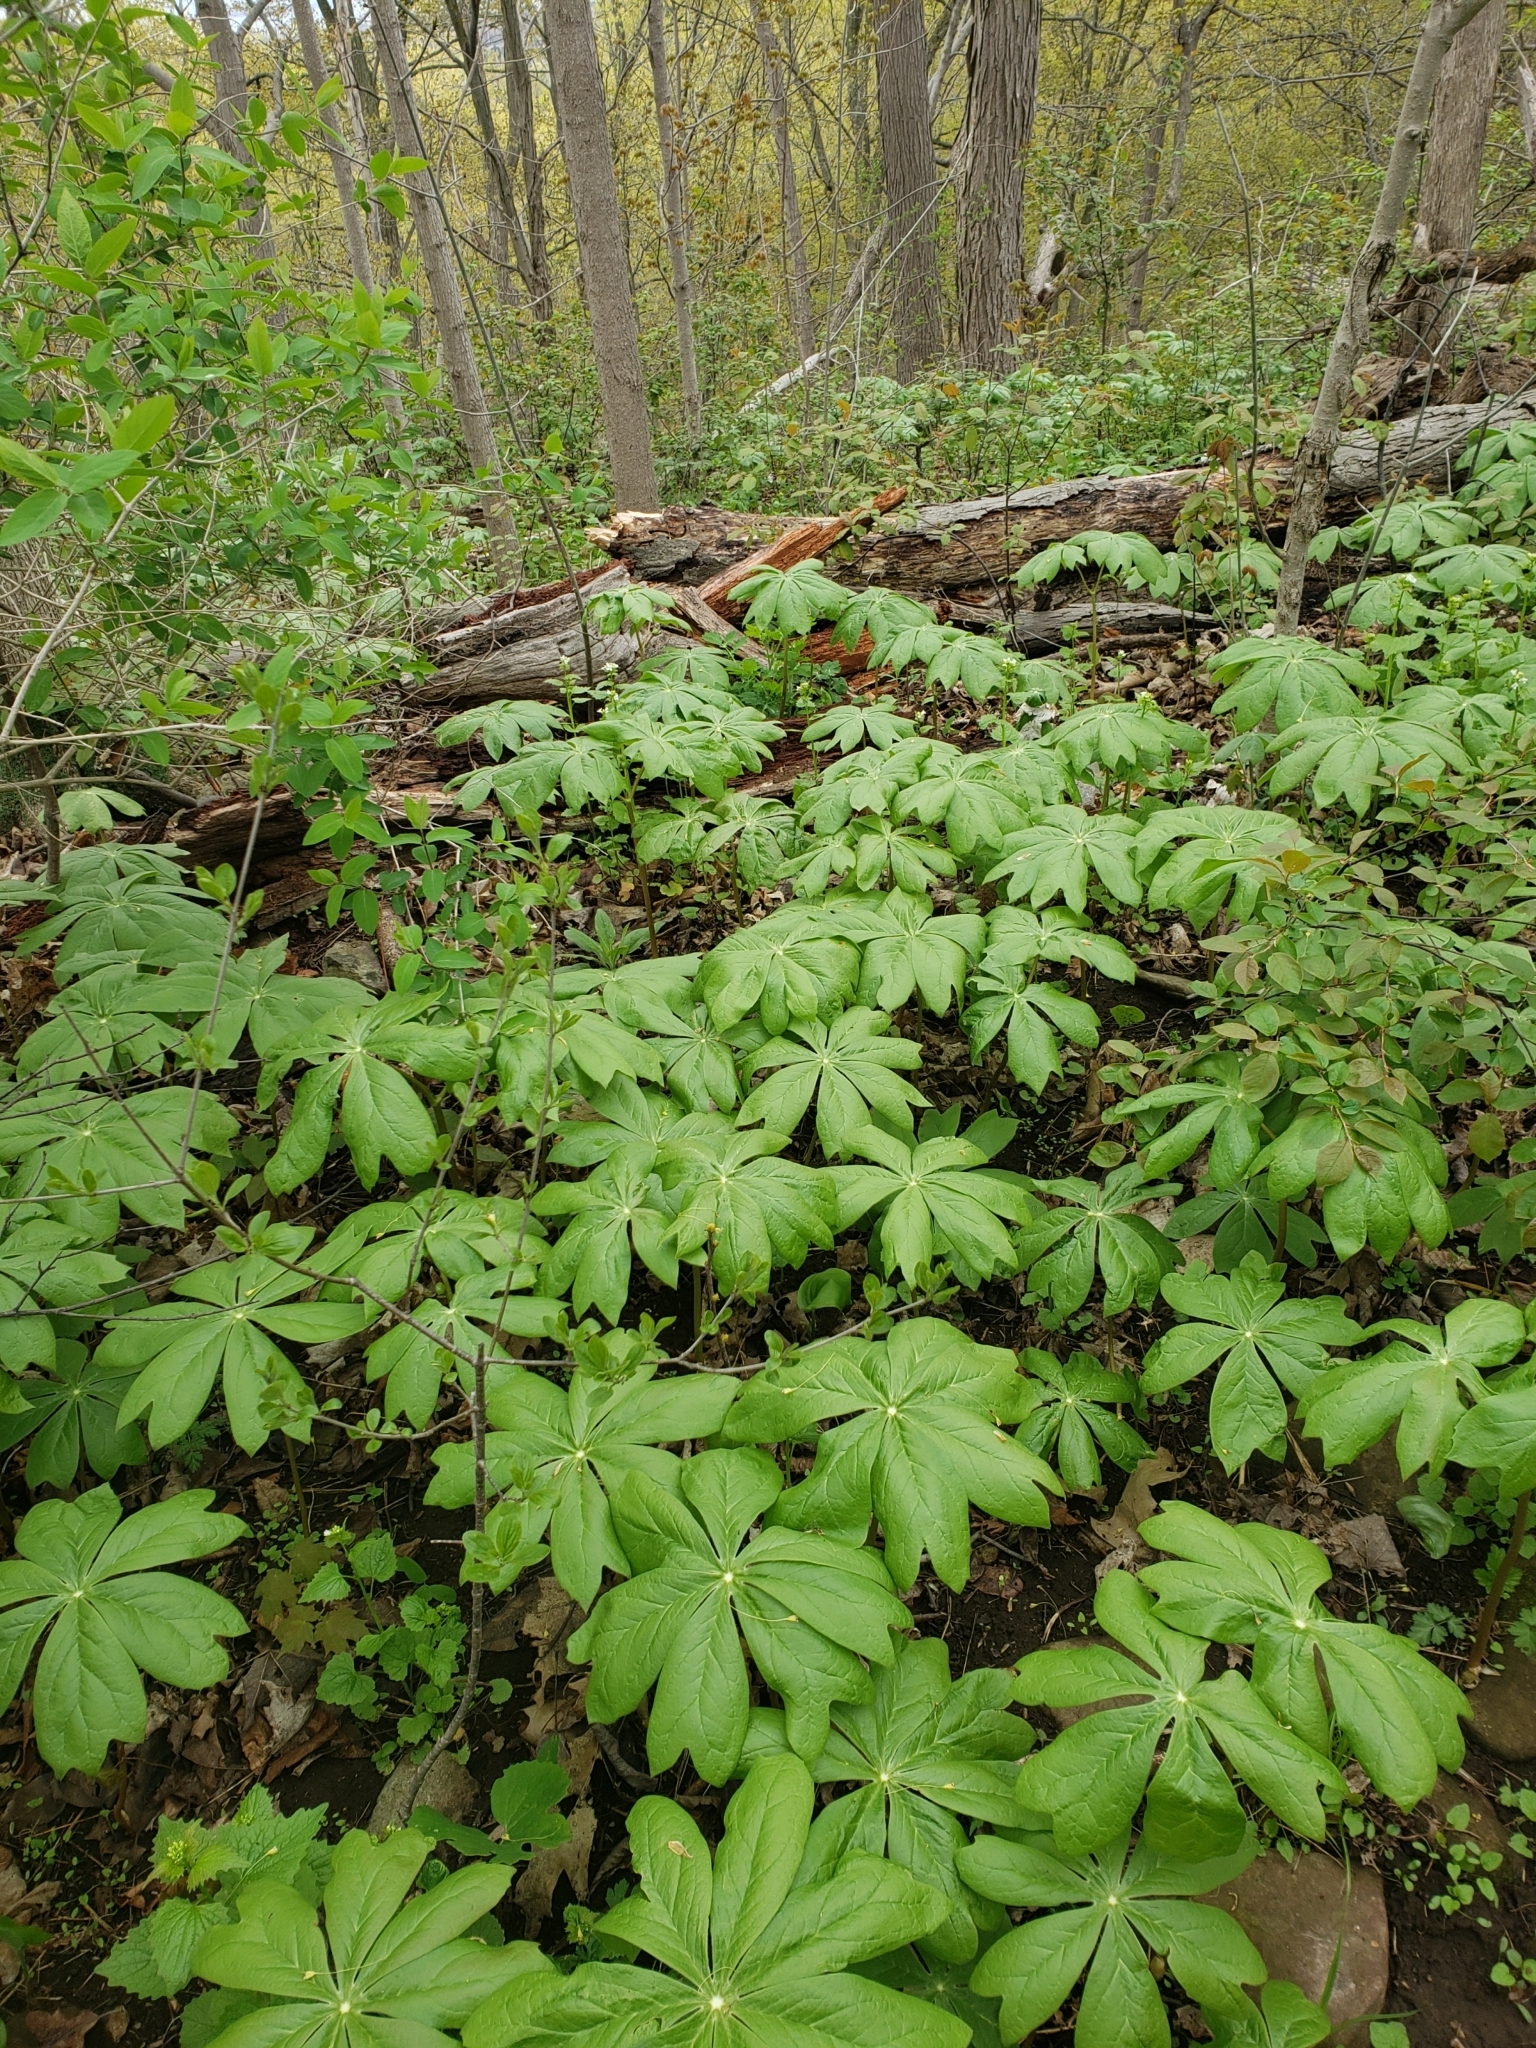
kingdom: Plantae
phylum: Tracheophyta
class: Magnoliopsida
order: Ranunculales
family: Berberidaceae
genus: Podophyllum
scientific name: Podophyllum peltatum
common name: Wild mandrake
